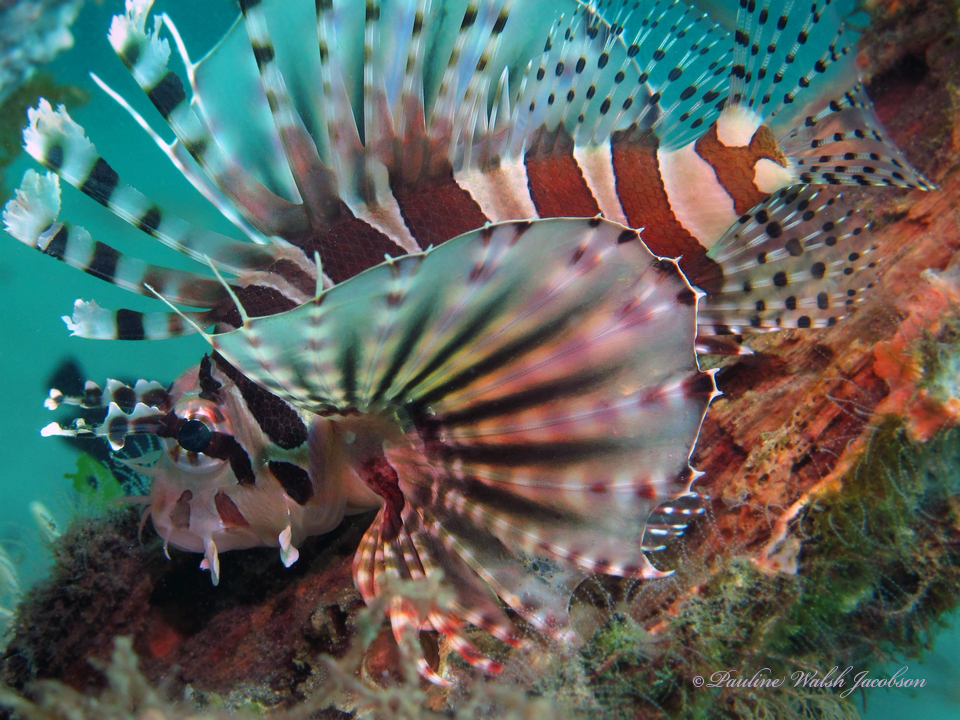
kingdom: Animalia
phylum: Chordata
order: Scorpaeniformes
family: Scorpaenidae
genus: Dendrochirus
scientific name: Dendrochirus zebra
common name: Zebra lionfish
